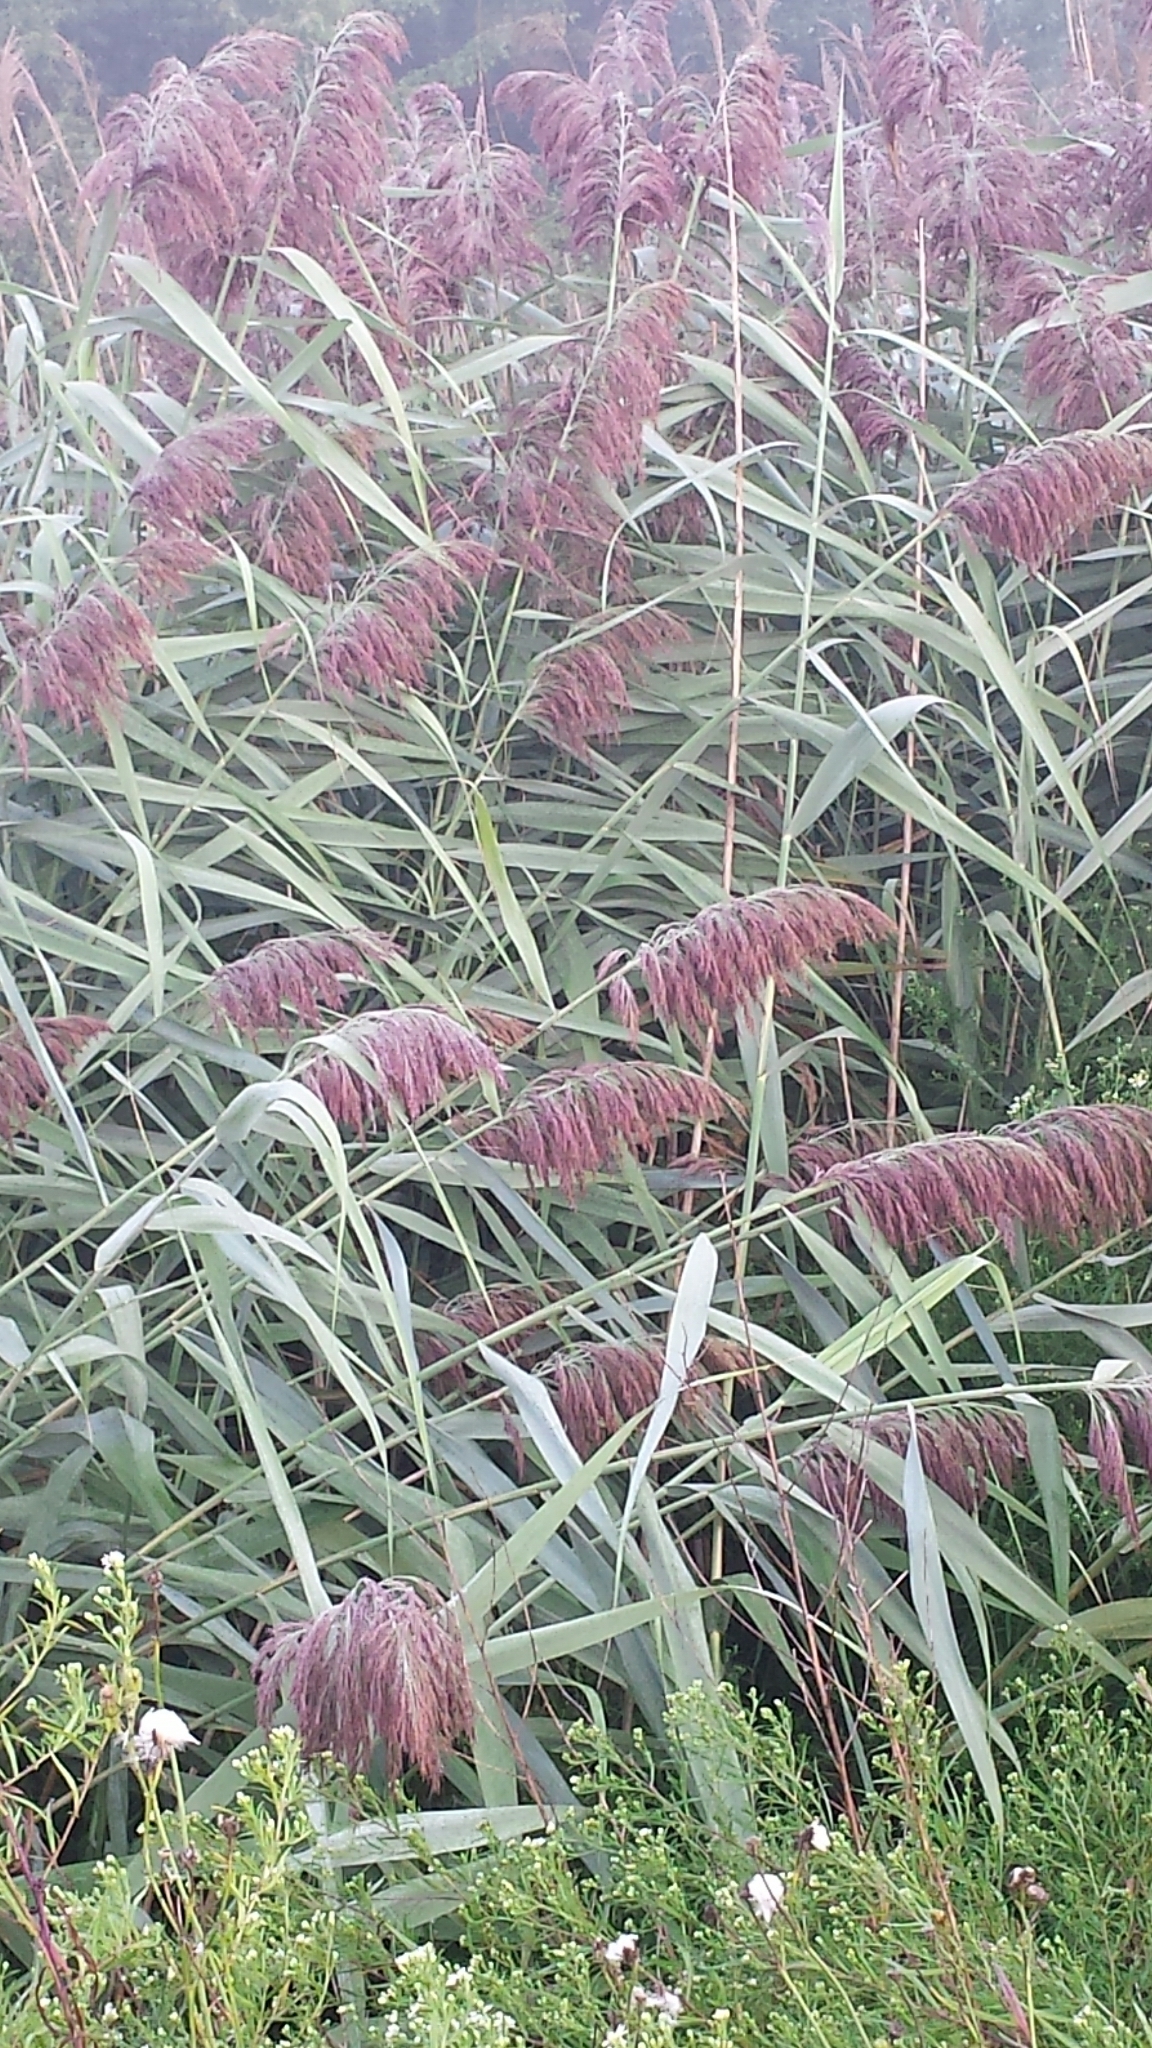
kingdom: Plantae
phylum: Tracheophyta
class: Liliopsida
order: Poales
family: Poaceae
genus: Phragmites
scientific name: Phragmites australis
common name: Common reed
